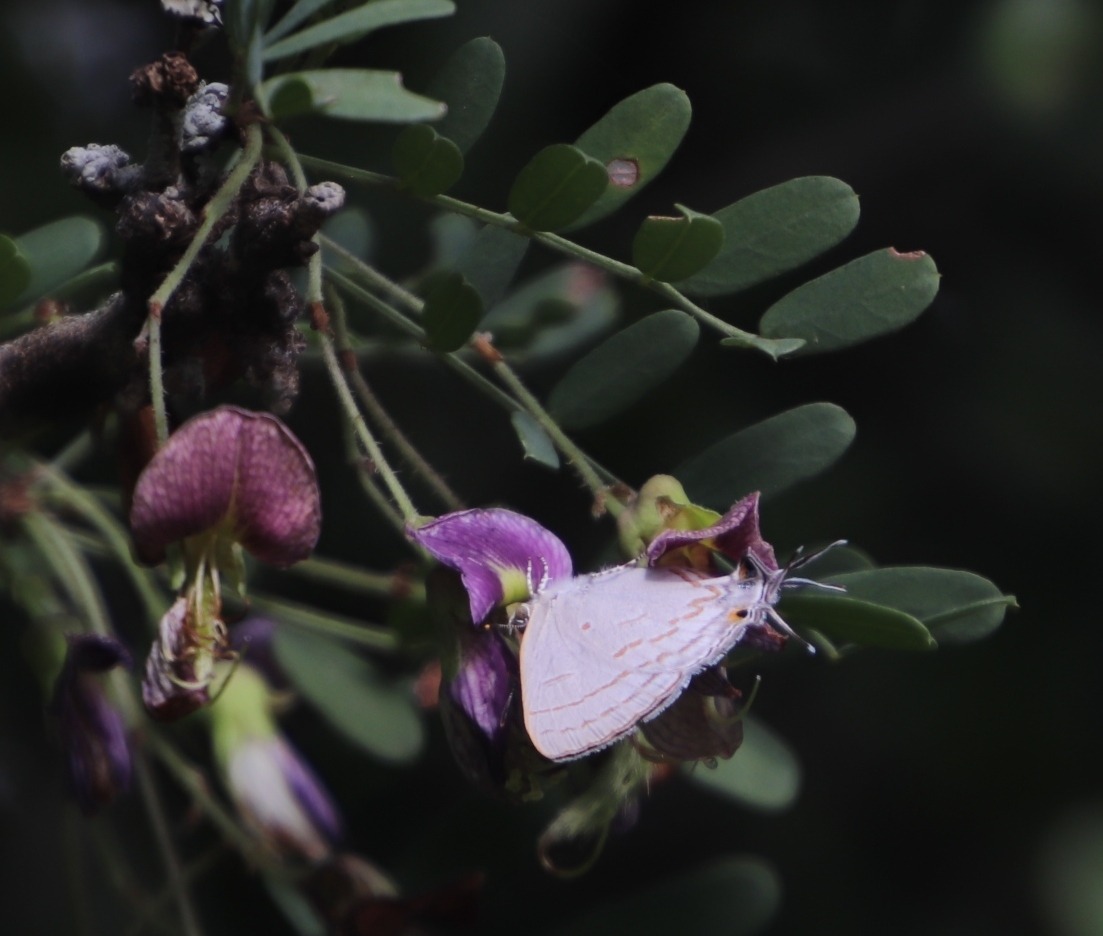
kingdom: Animalia
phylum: Arthropoda
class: Insecta
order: Lepidoptera
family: Lycaenidae
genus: Hypolycaena
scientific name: Hypolycaena philippus
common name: Common hairstreak
